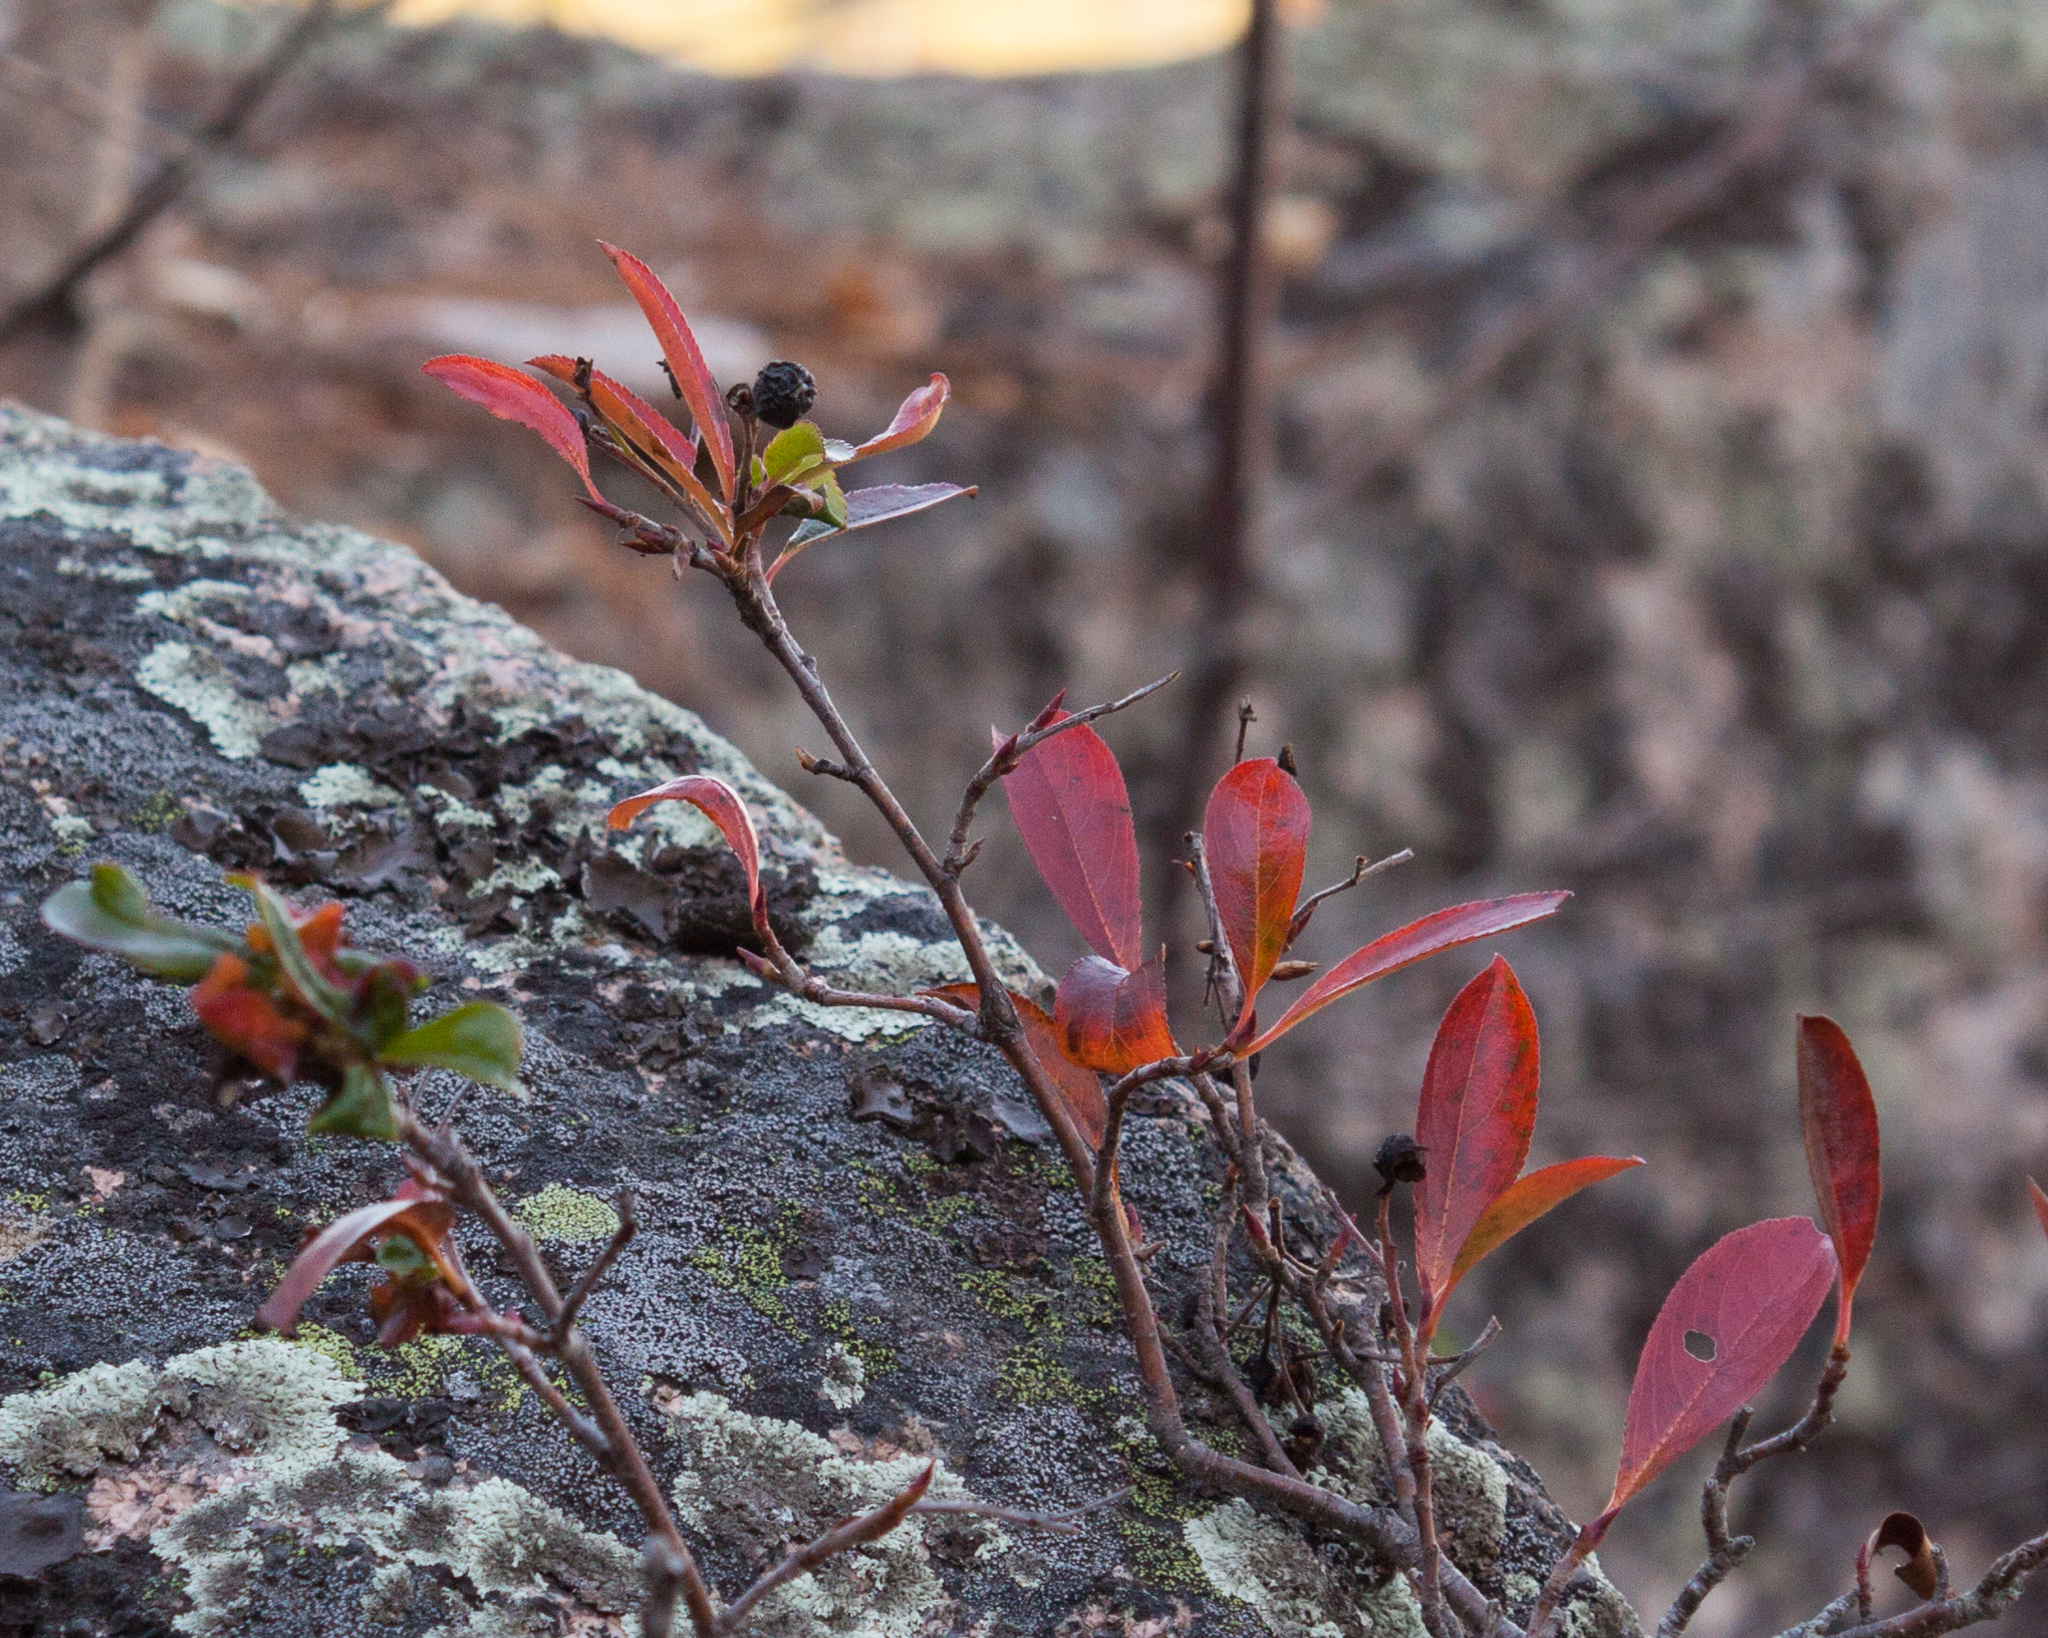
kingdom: Plantae
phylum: Tracheophyta
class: Magnoliopsida
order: Rosales
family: Rosaceae
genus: Aronia
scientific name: Aronia melanocarpa
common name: Black chokeberry
